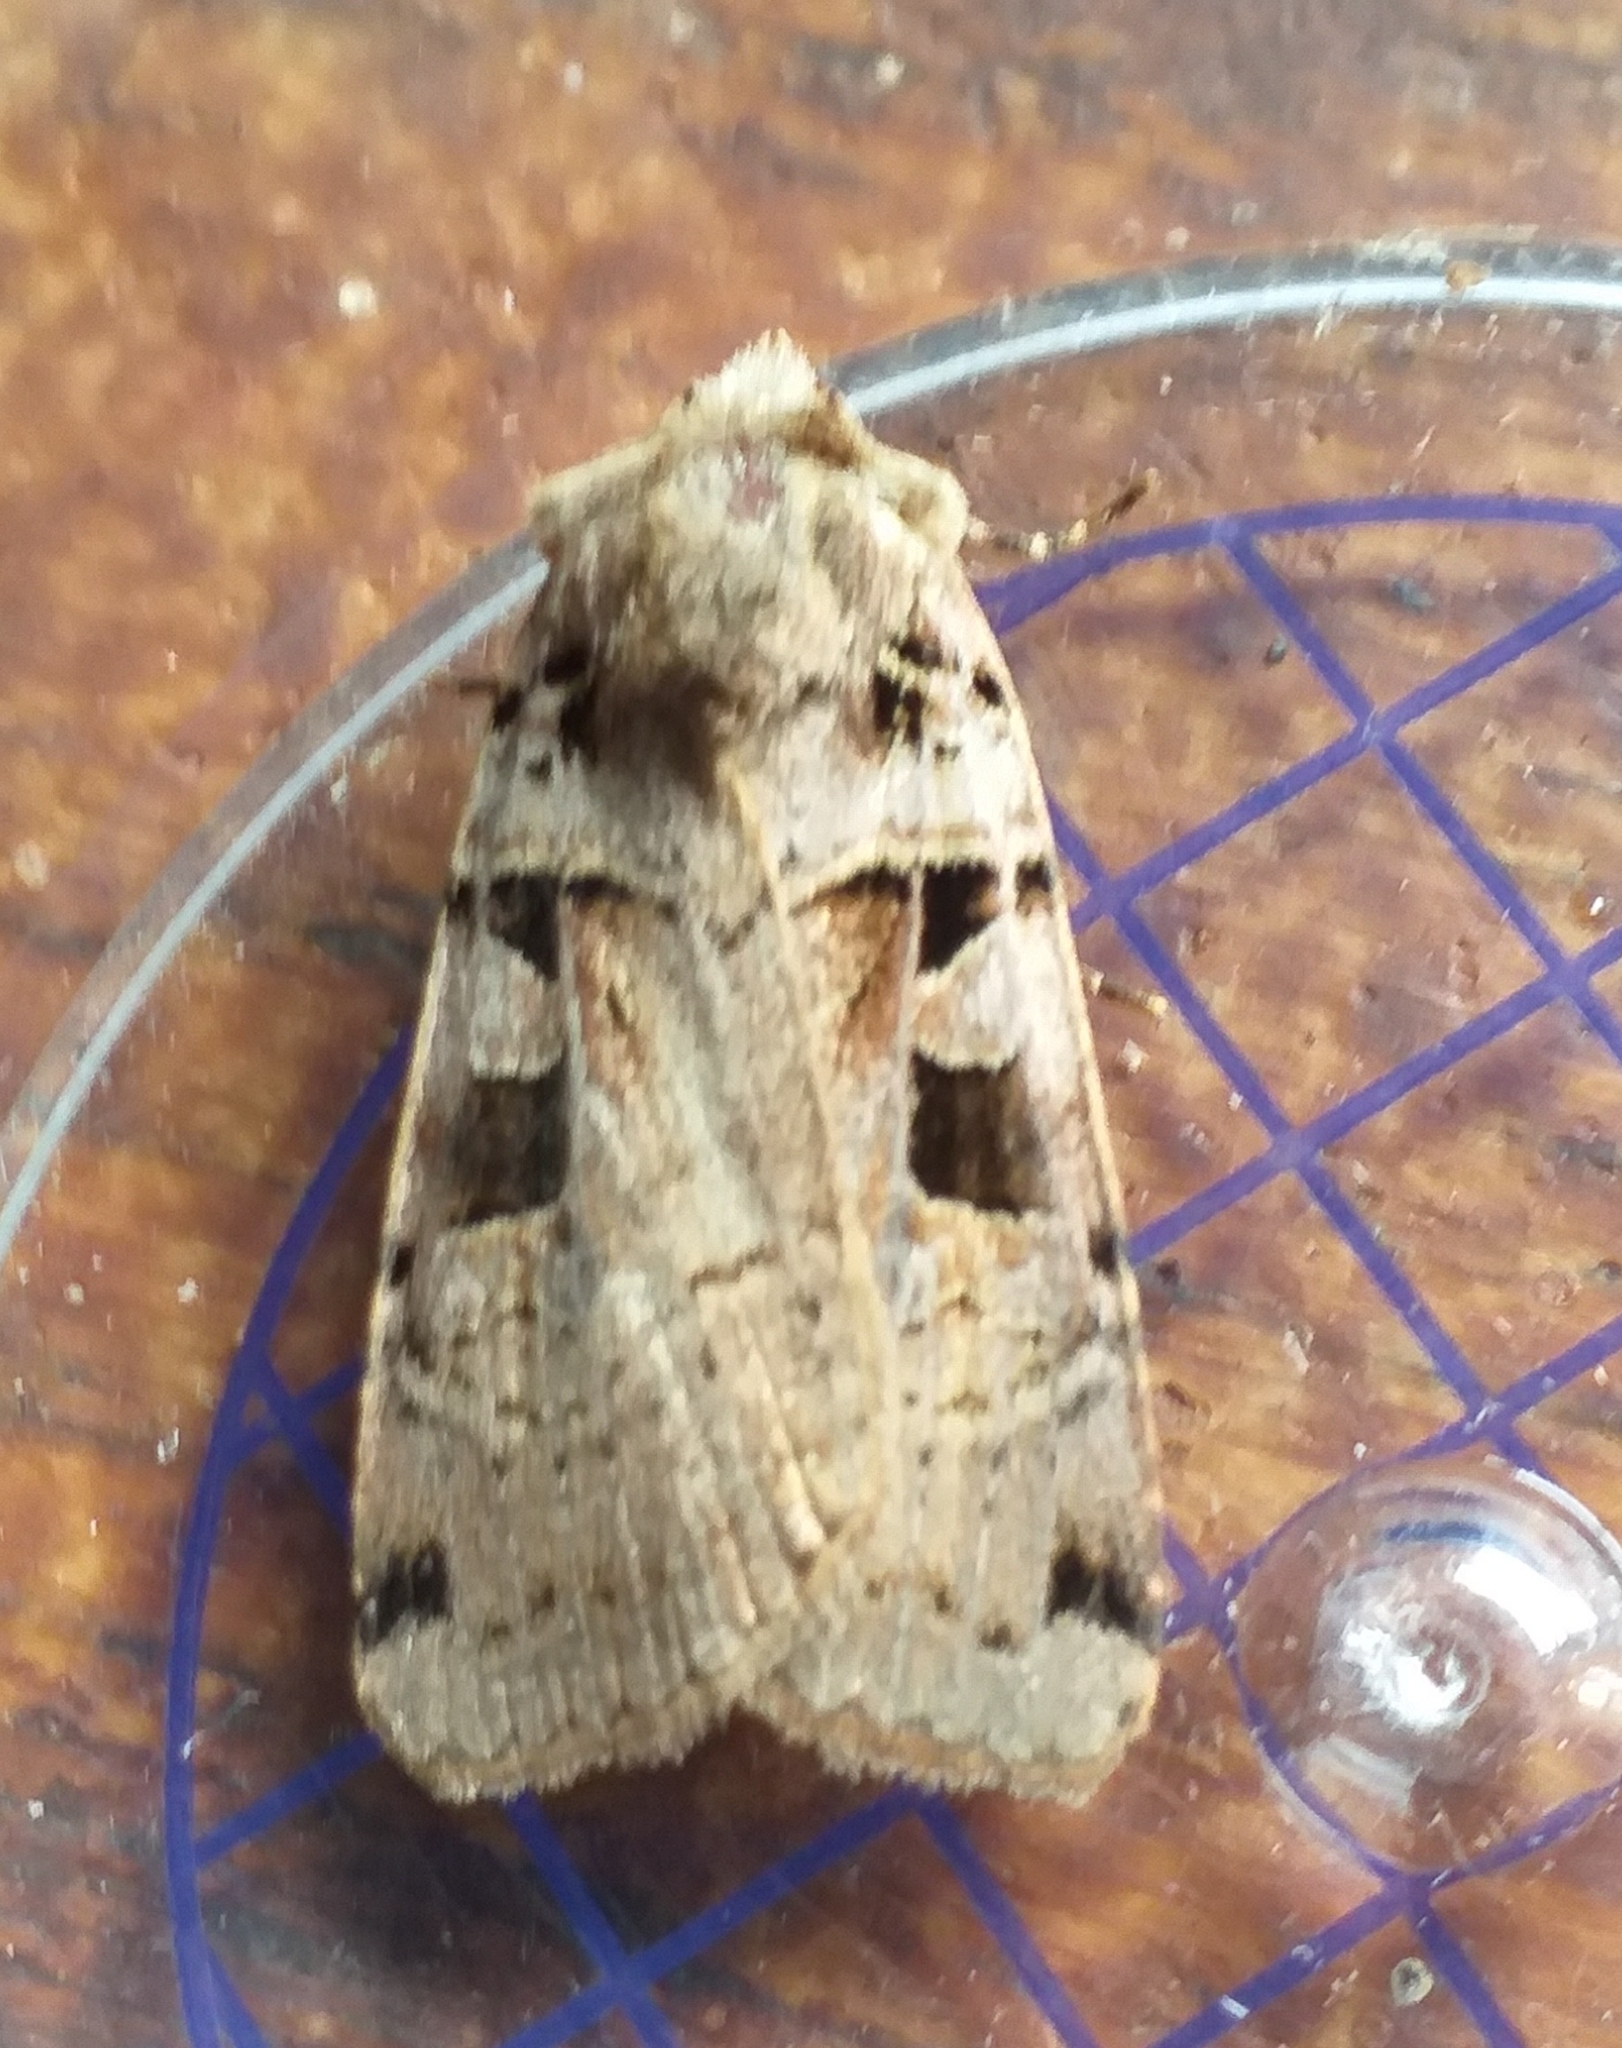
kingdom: Animalia
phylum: Arthropoda
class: Insecta
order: Lepidoptera
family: Noctuidae
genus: Xestia
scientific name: Xestia triangulum
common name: Double square-spot
